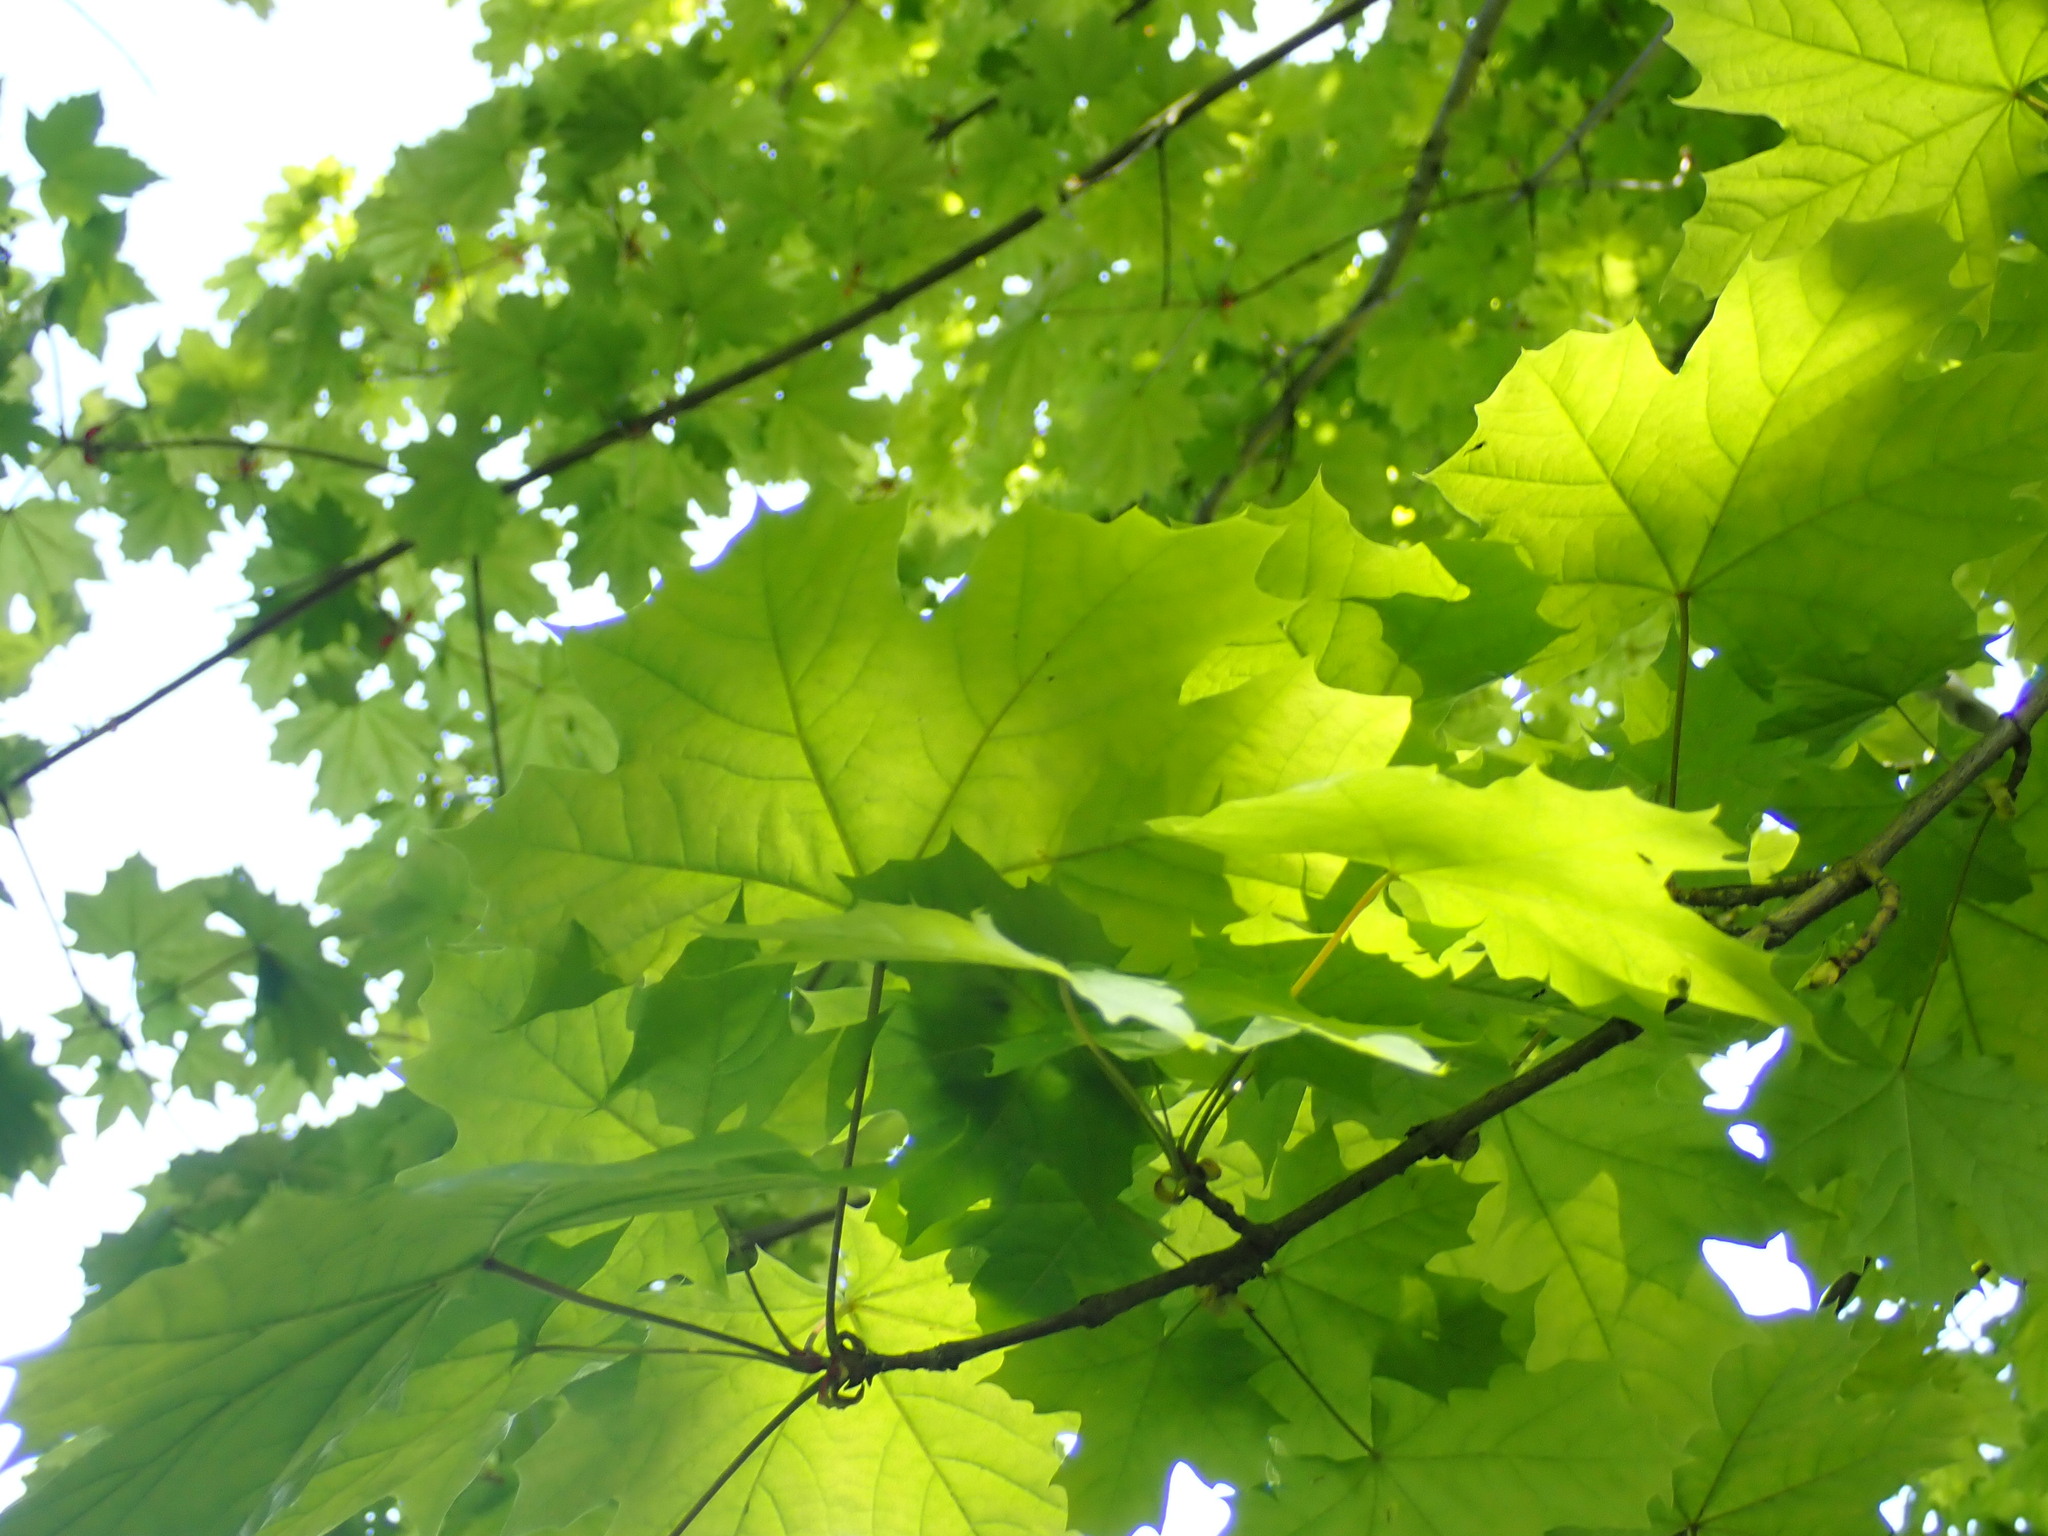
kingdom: Plantae
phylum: Tracheophyta
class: Magnoliopsida
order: Sapindales
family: Sapindaceae
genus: Acer
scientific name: Acer platanoides
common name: Norway maple
